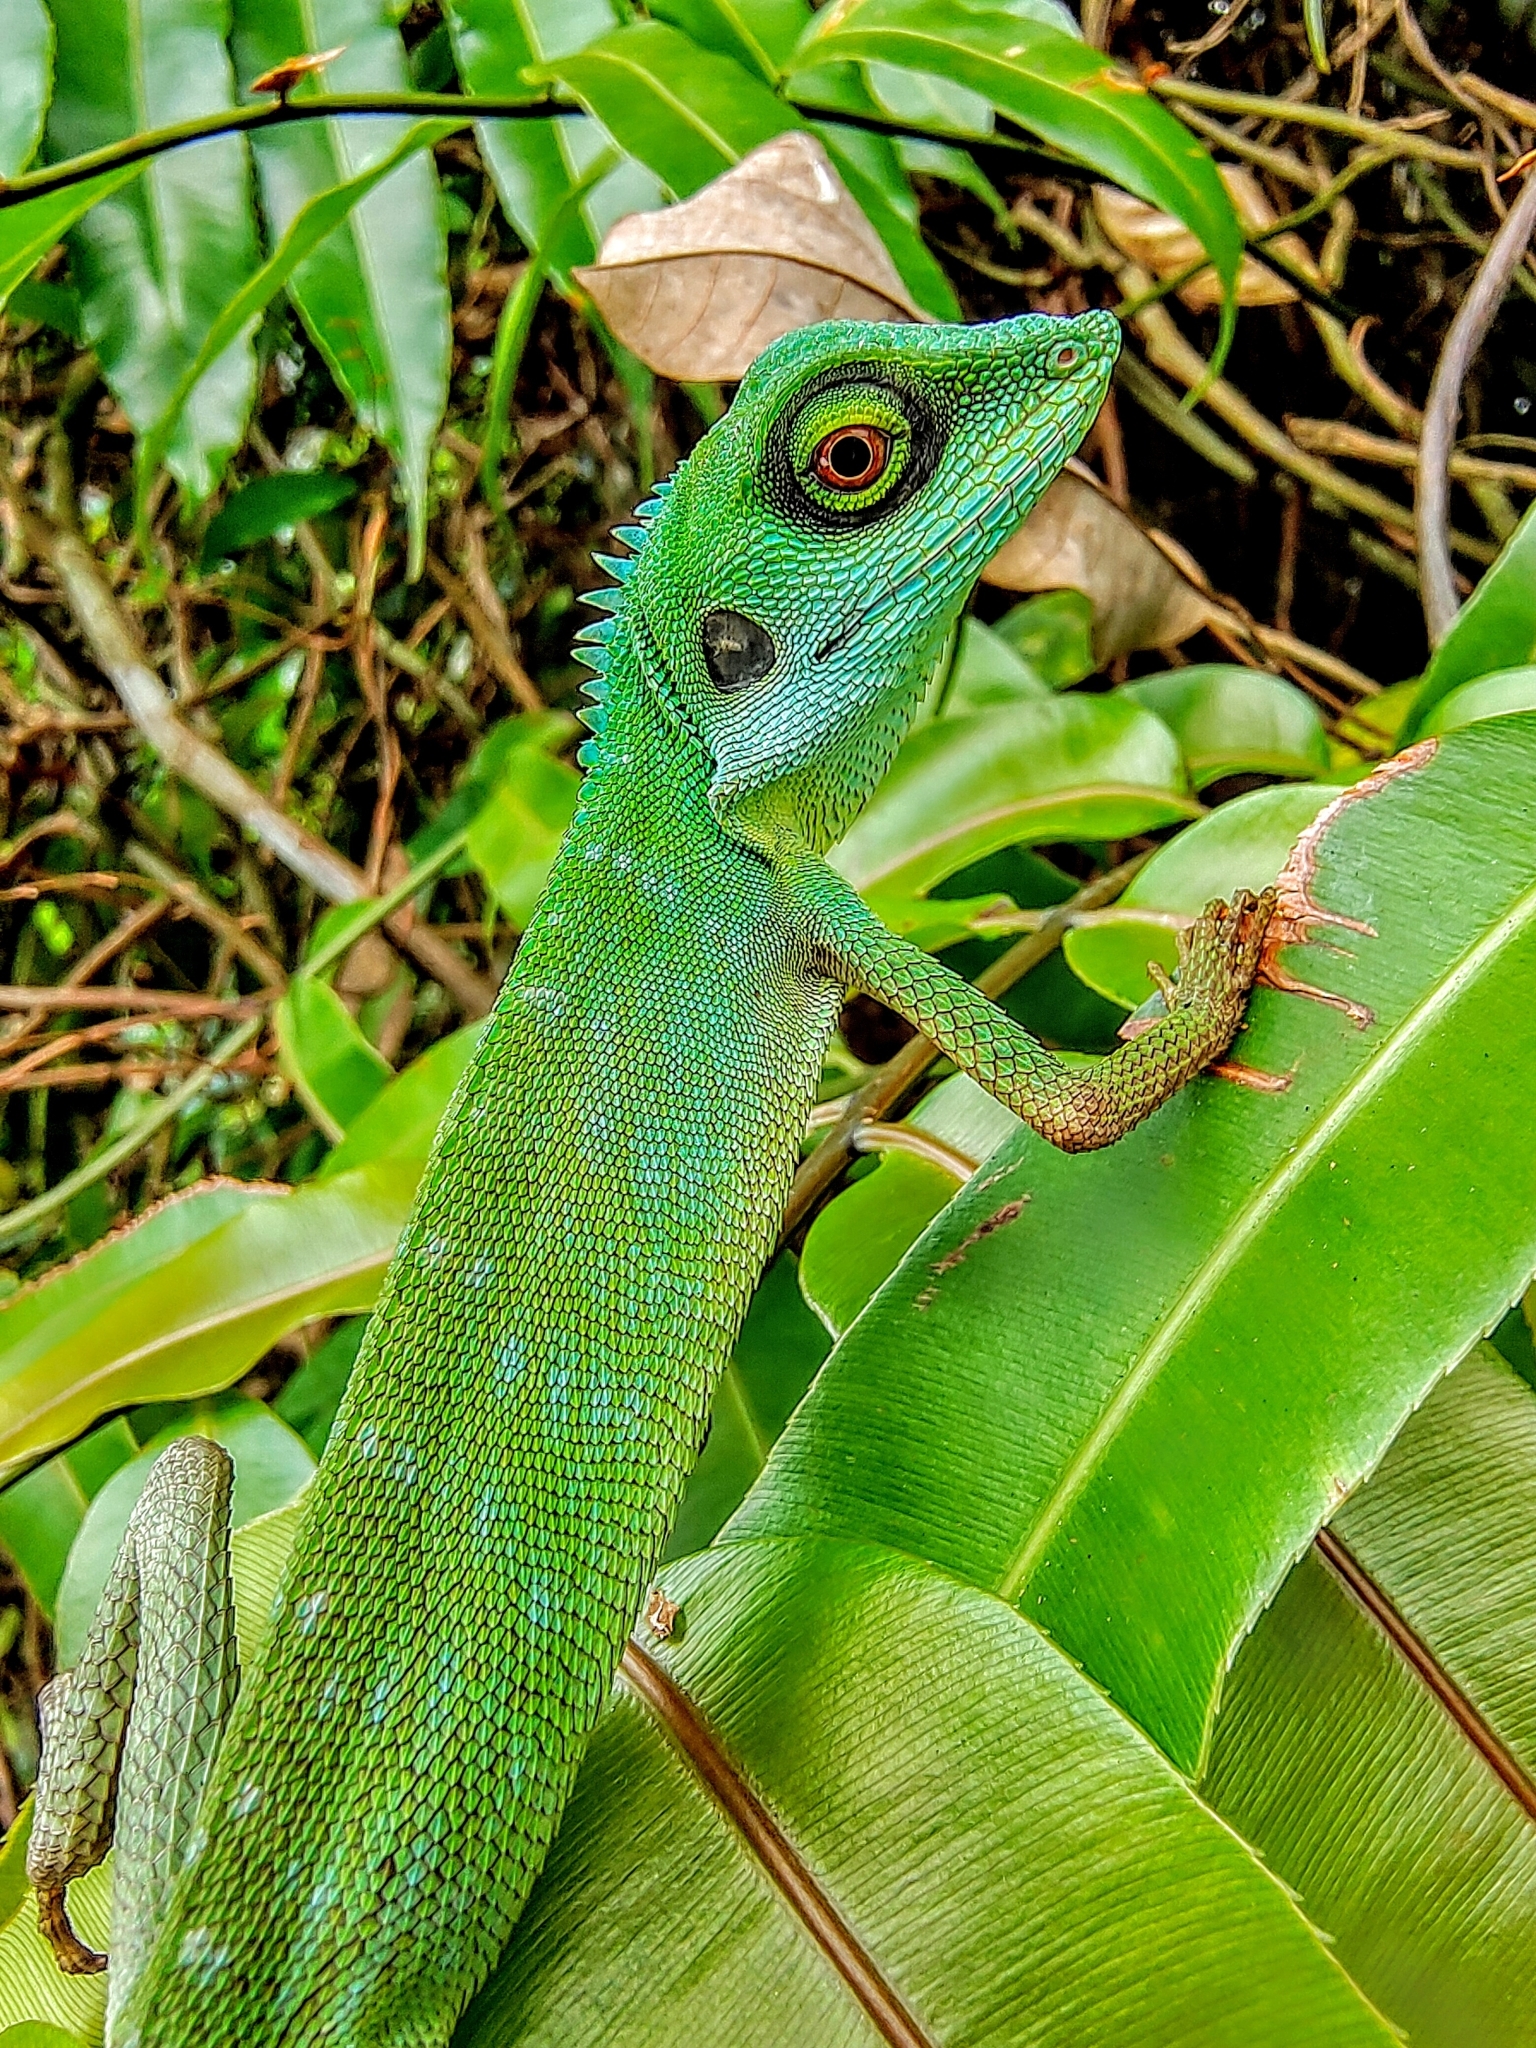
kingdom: Animalia
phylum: Chordata
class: Squamata
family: Agamidae
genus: Bronchocela
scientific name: Bronchocela cristatella
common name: Green crested lizard
